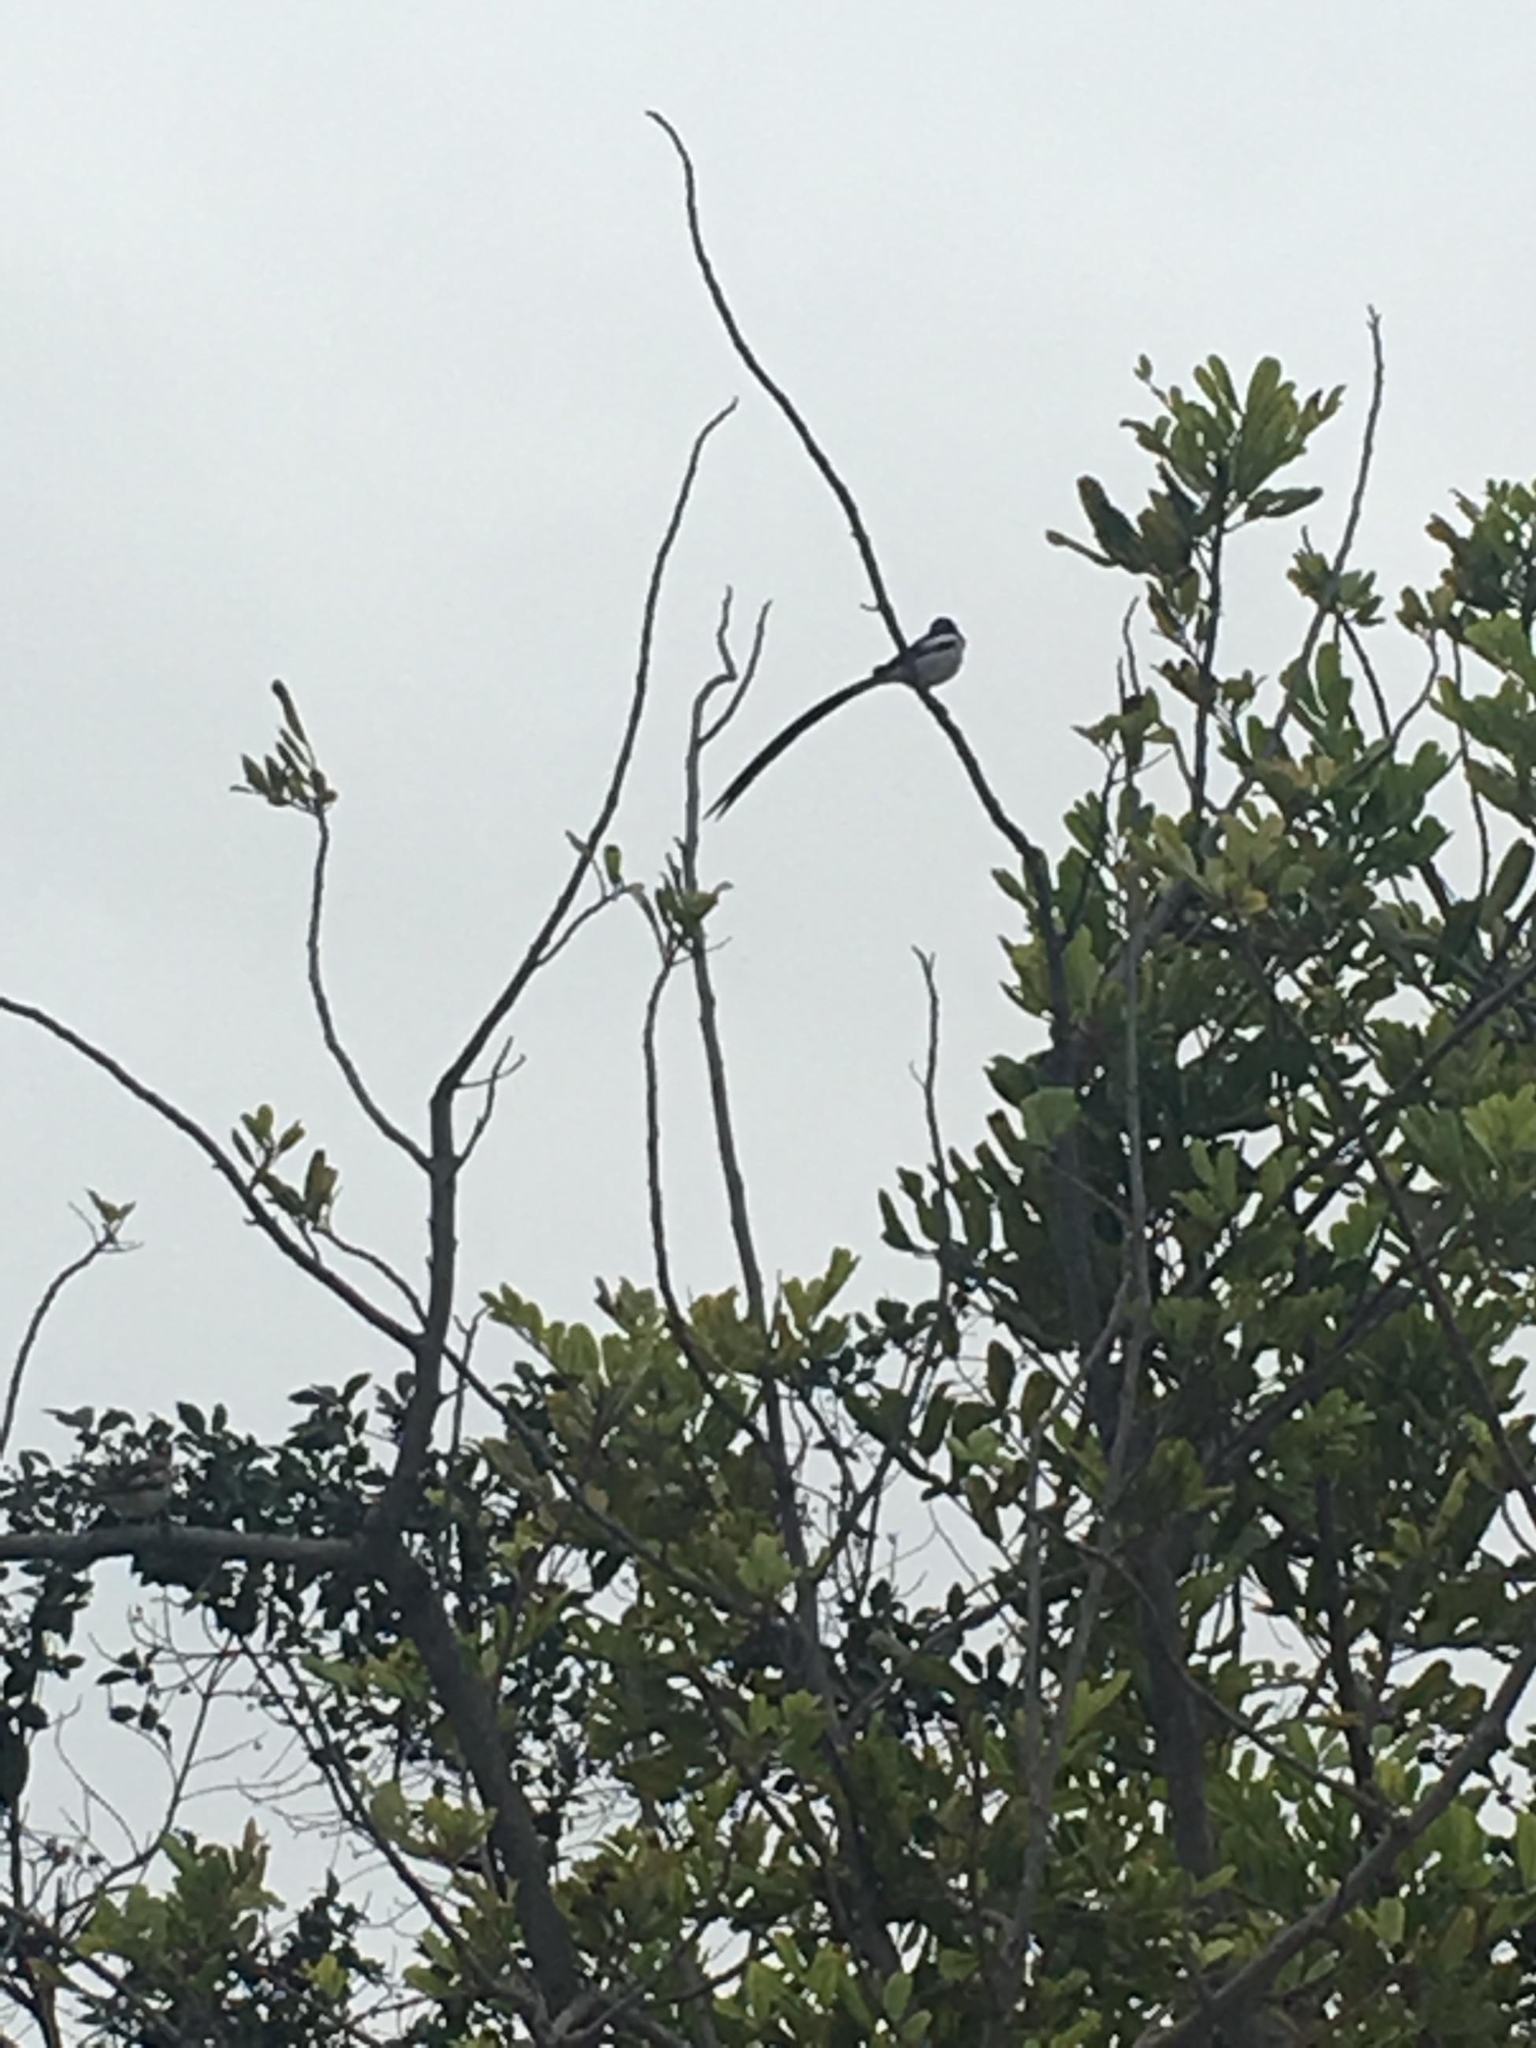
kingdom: Animalia
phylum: Chordata
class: Aves
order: Passeriformes
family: Viduidae
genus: Vidua
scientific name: Vidua macroura
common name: Pin-tailed whydah
